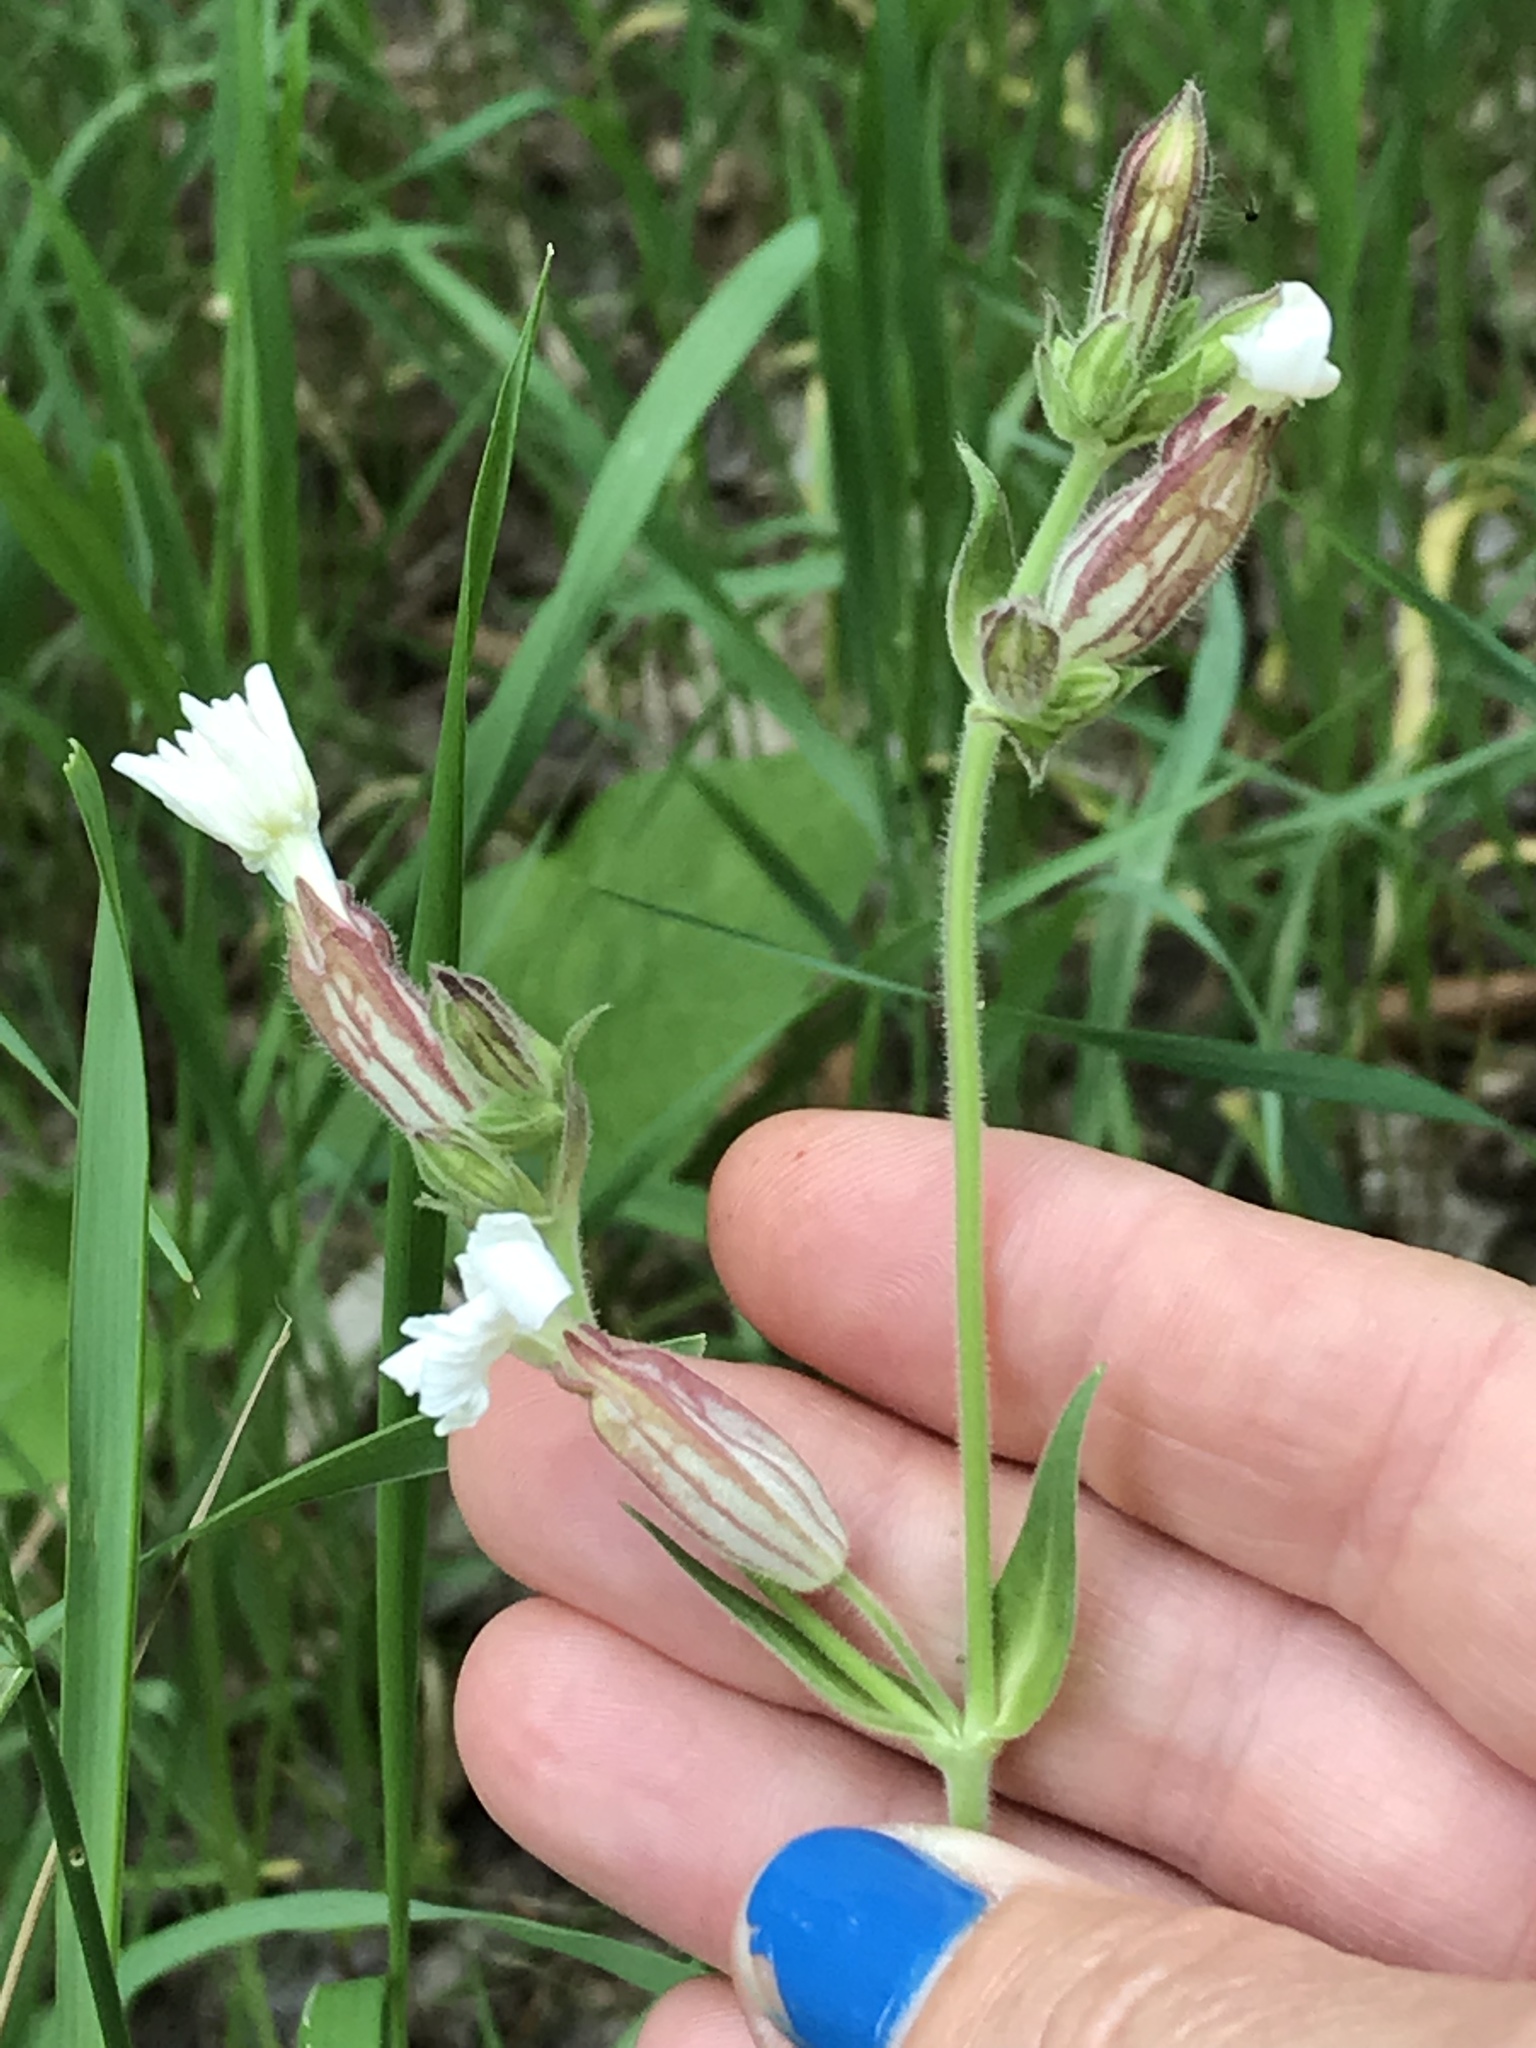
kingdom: Plantae
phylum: Tracheophyta
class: Magnoliopsida
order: Caryophyllales
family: Caryophyllaceae
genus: Silene
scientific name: Silene latifolia
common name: White campion
